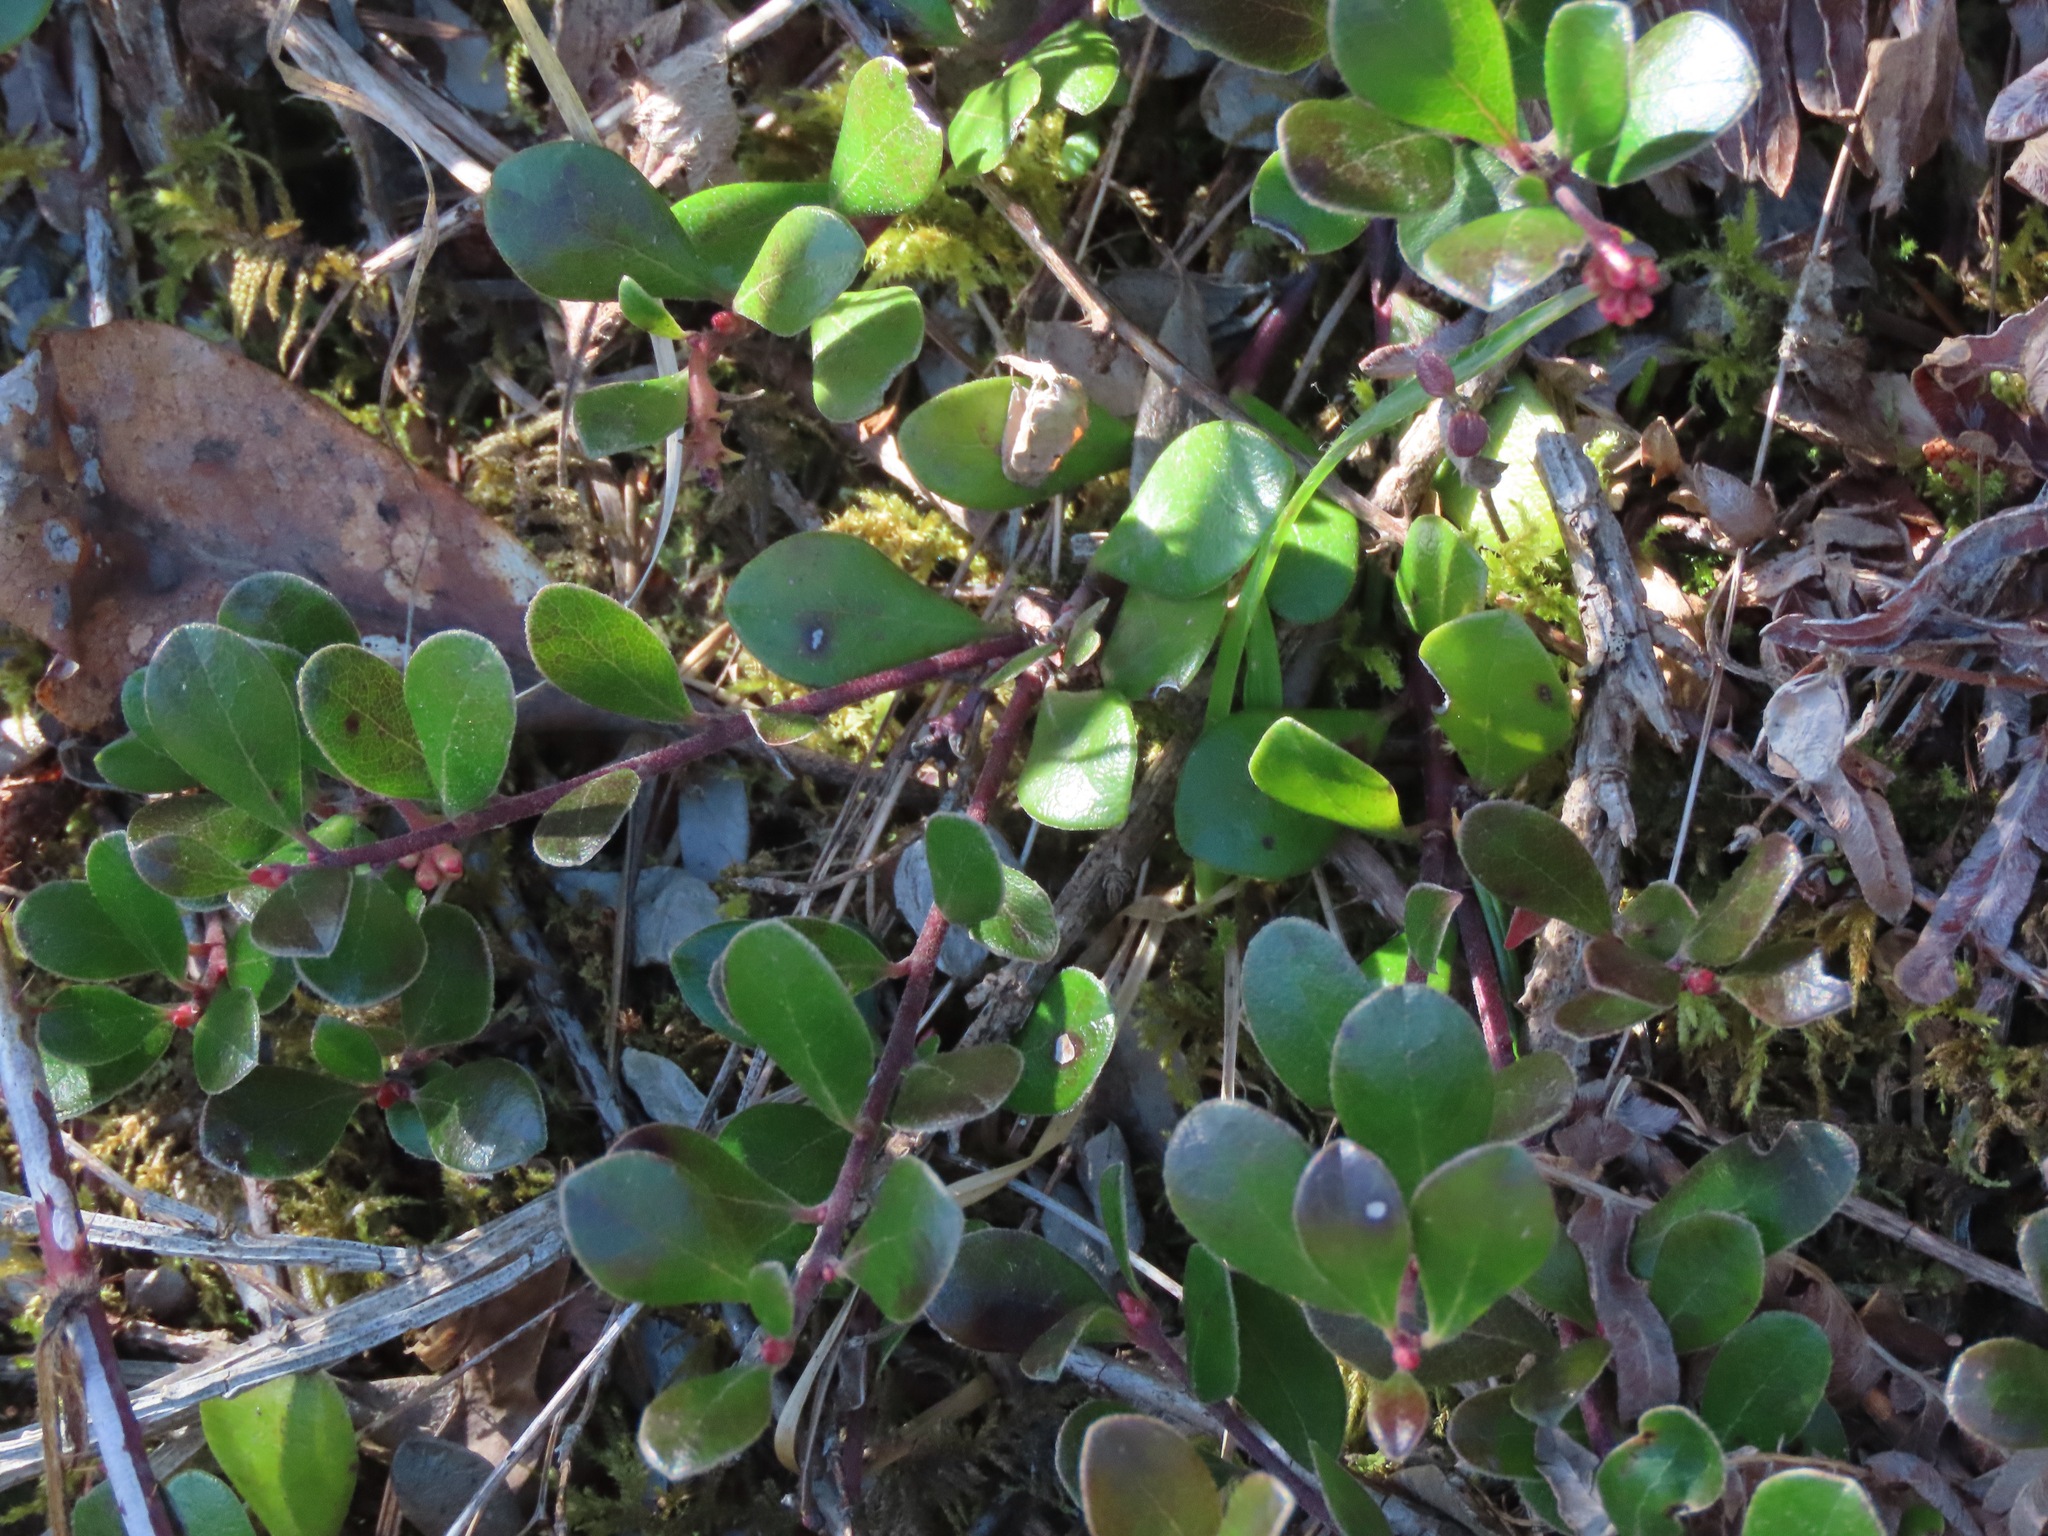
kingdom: Plantae
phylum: Tracheophyta
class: Magnoliopsida
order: Ericales
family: Ericaceae
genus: Arctostaphylos
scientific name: Arctostaphylos uva-ursi
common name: Bearberry
